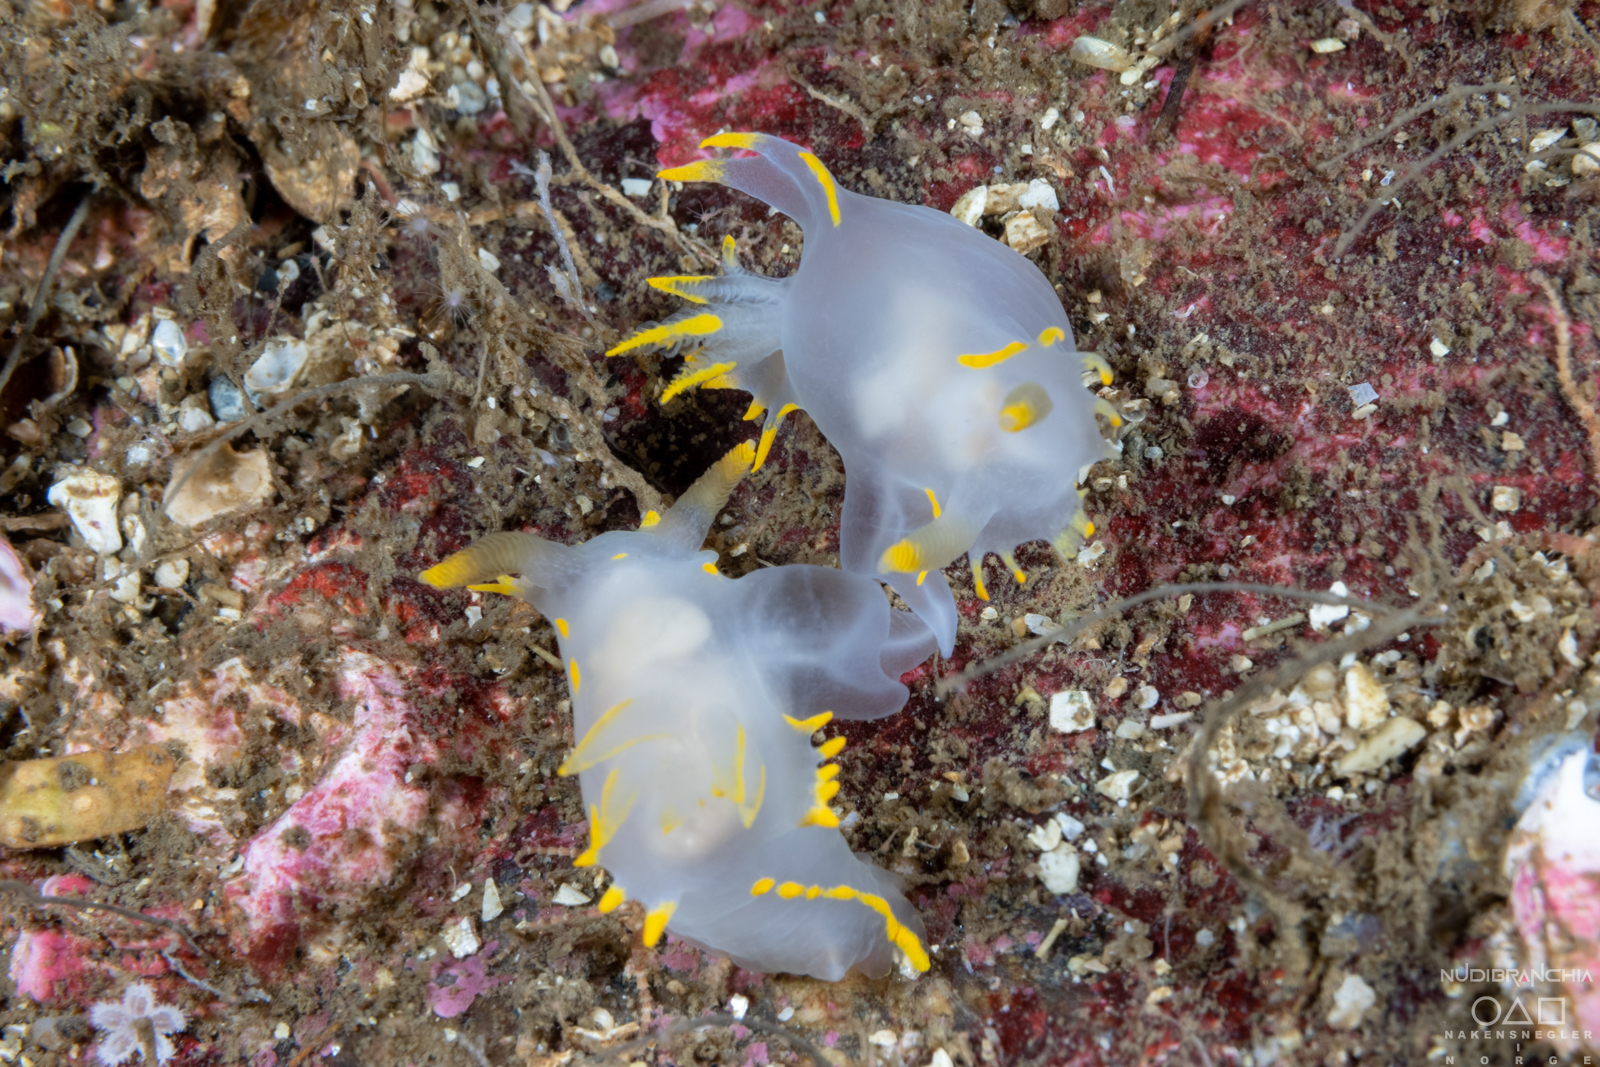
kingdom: Animalia
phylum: Mollusca
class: Gastropoda
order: Nudibranchia
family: Polyceridae
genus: Polycera
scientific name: Polycera faeroensis
